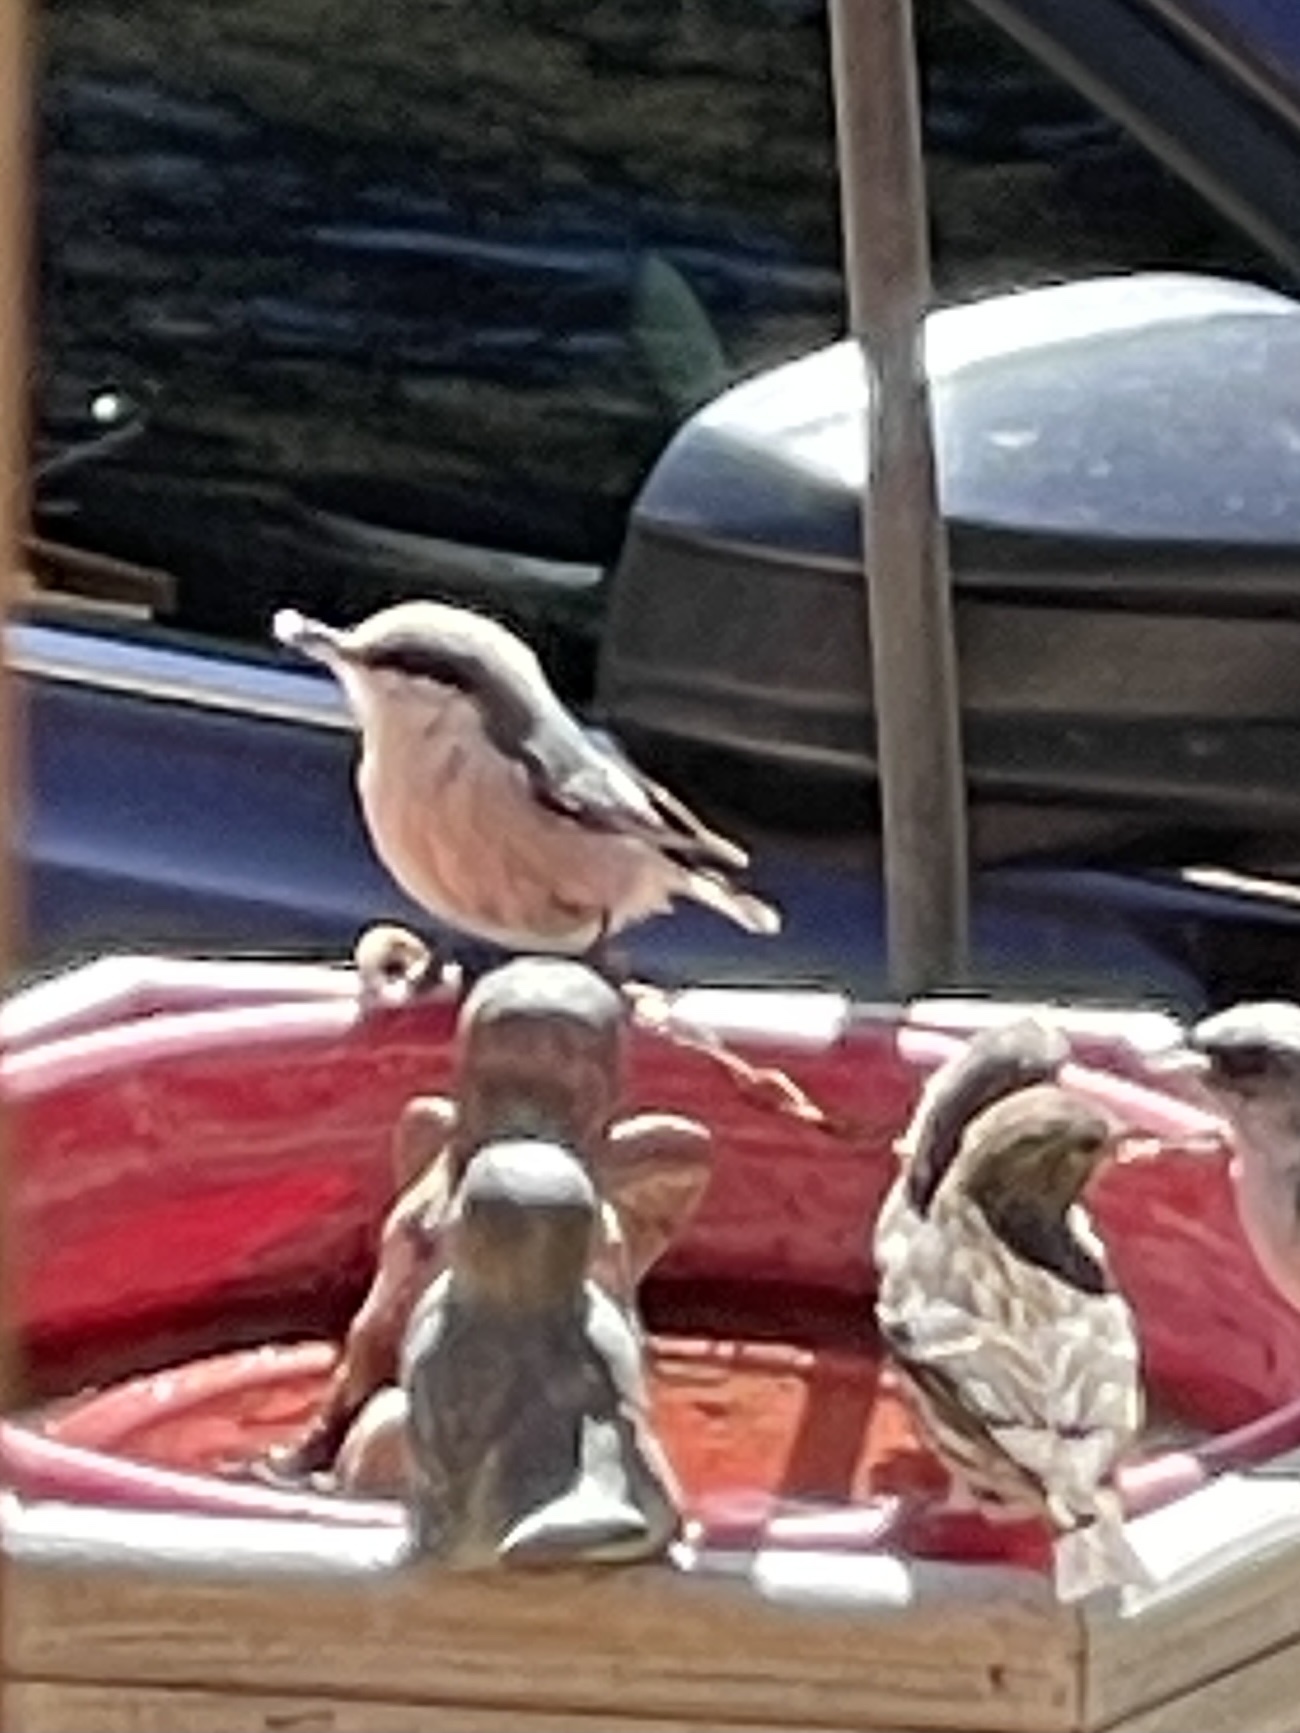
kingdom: Animalia
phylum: Chordata
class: Aves
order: Passeriformes
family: Sittidae
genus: Sitta
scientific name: Sitta pygmaea
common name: Pygmy nuthatch
